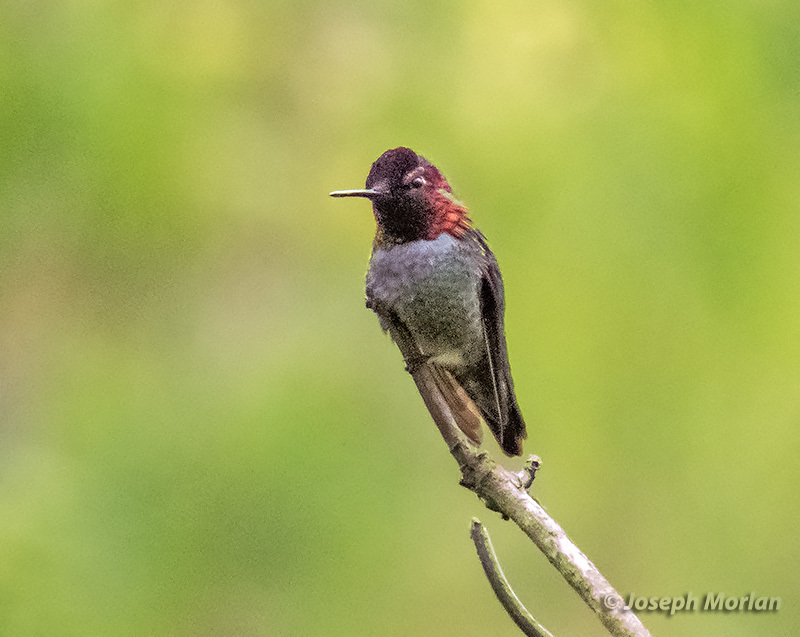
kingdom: Animalia
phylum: Chordata
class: Aves
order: Apodiformes
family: Trochilidae
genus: Calypte
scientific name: Calypte anna
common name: Anna's hummingbird
